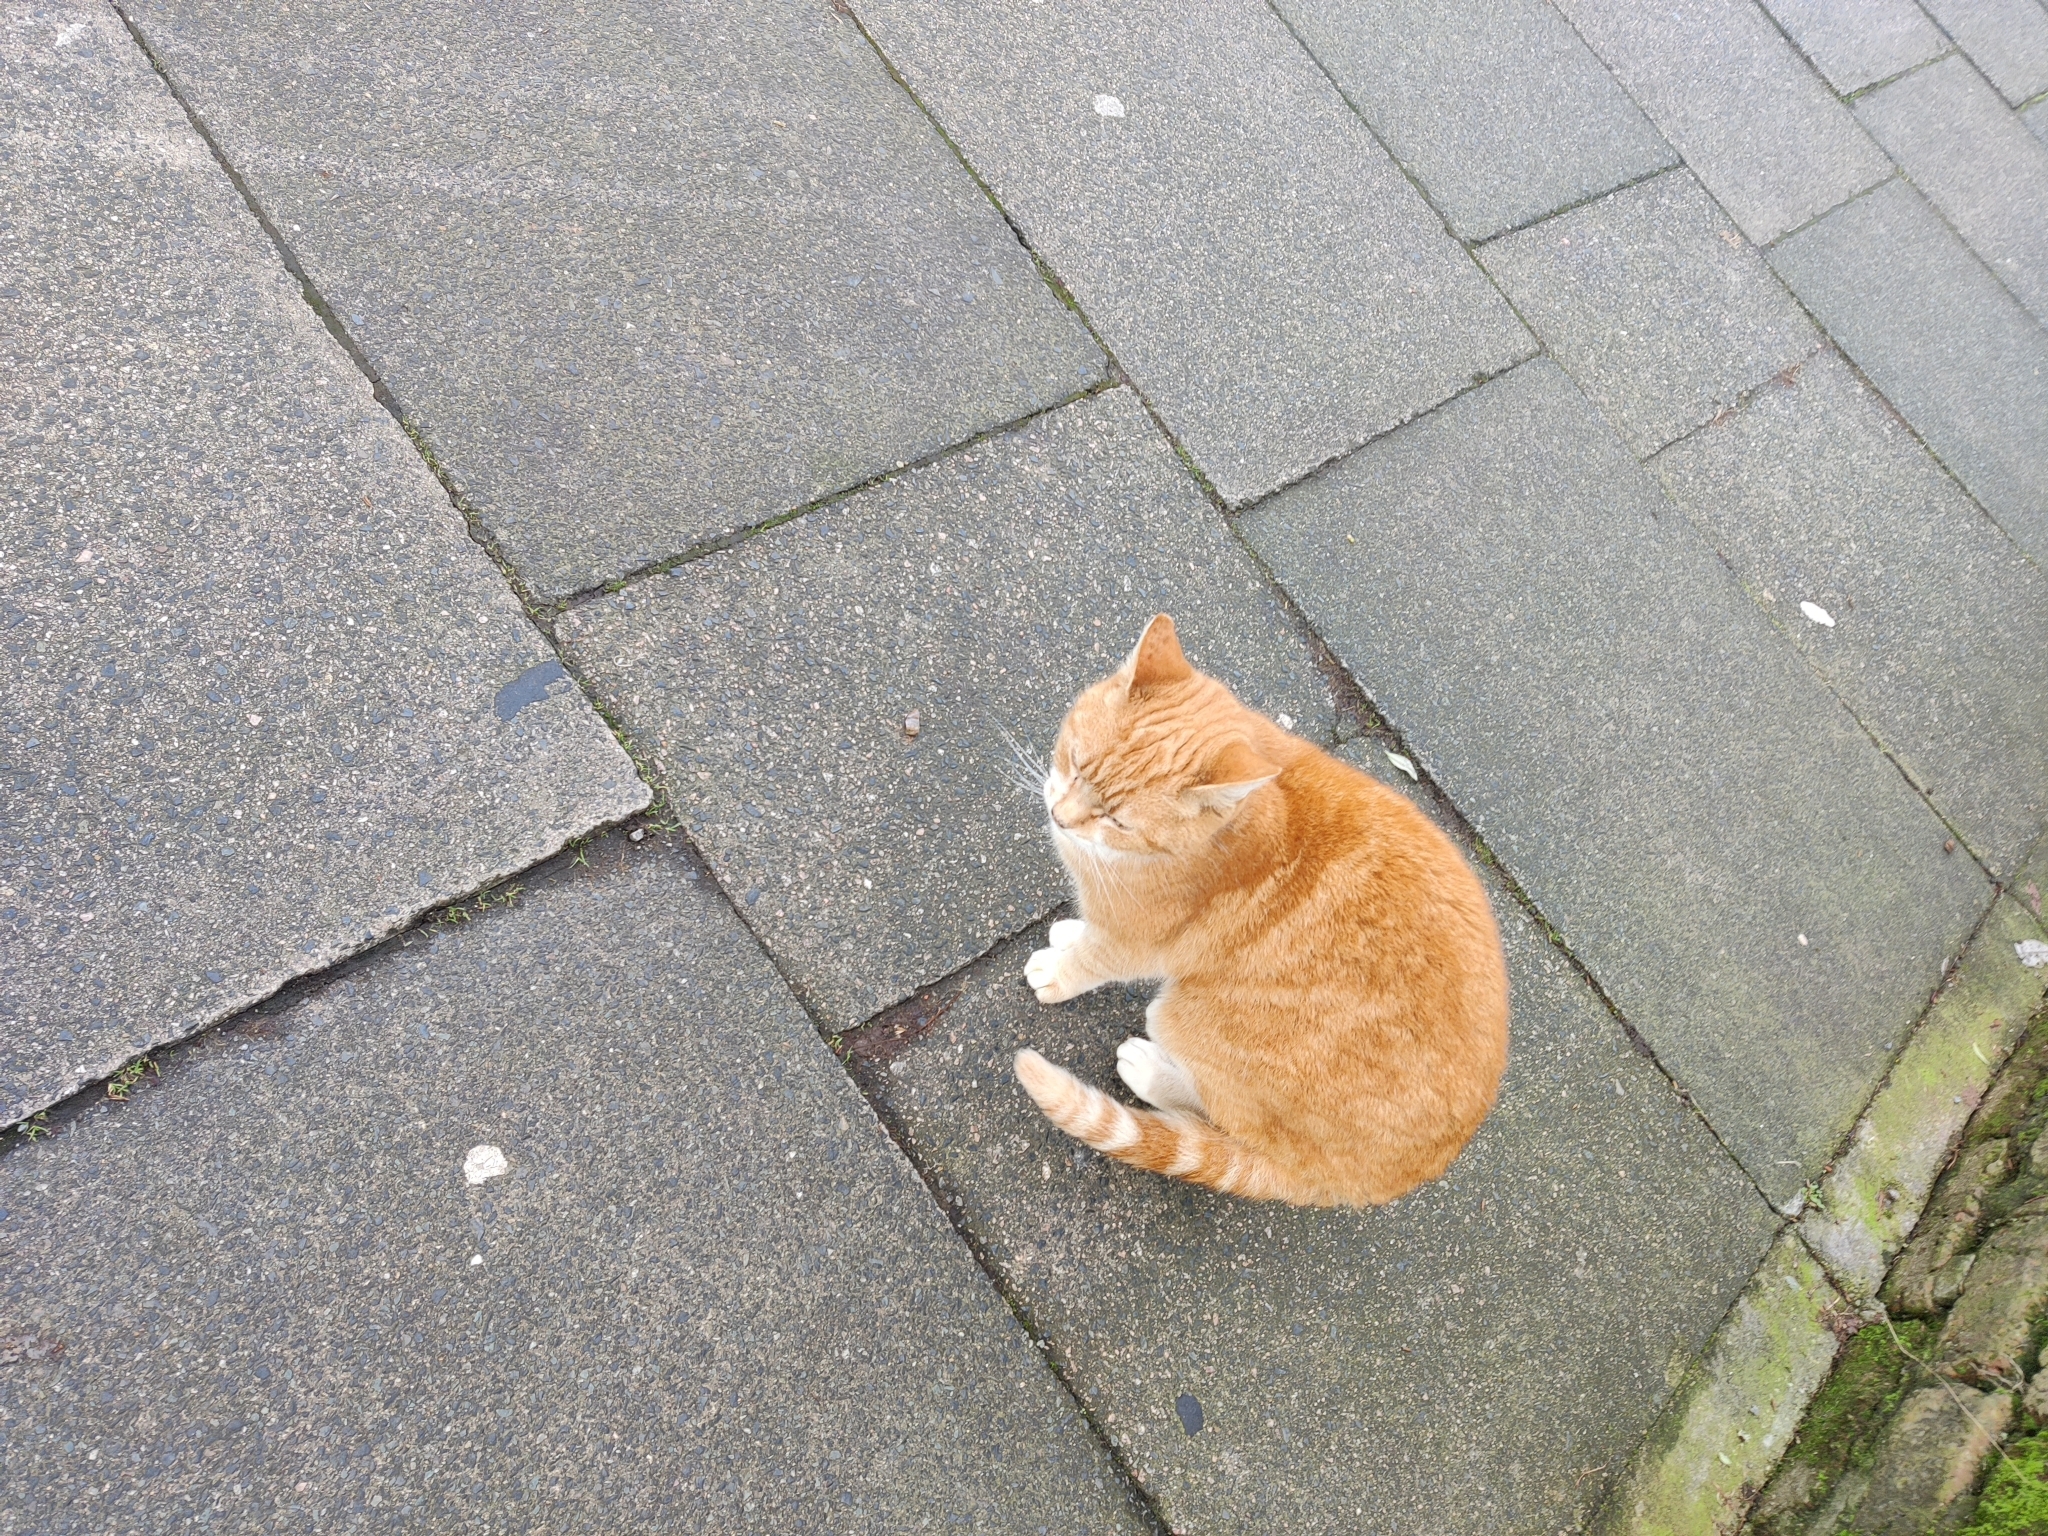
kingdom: Animalia
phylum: Chordata
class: Mammalia
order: Carnivora
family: Felidae
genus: Felis
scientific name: Felis catus
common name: Domestic cat
